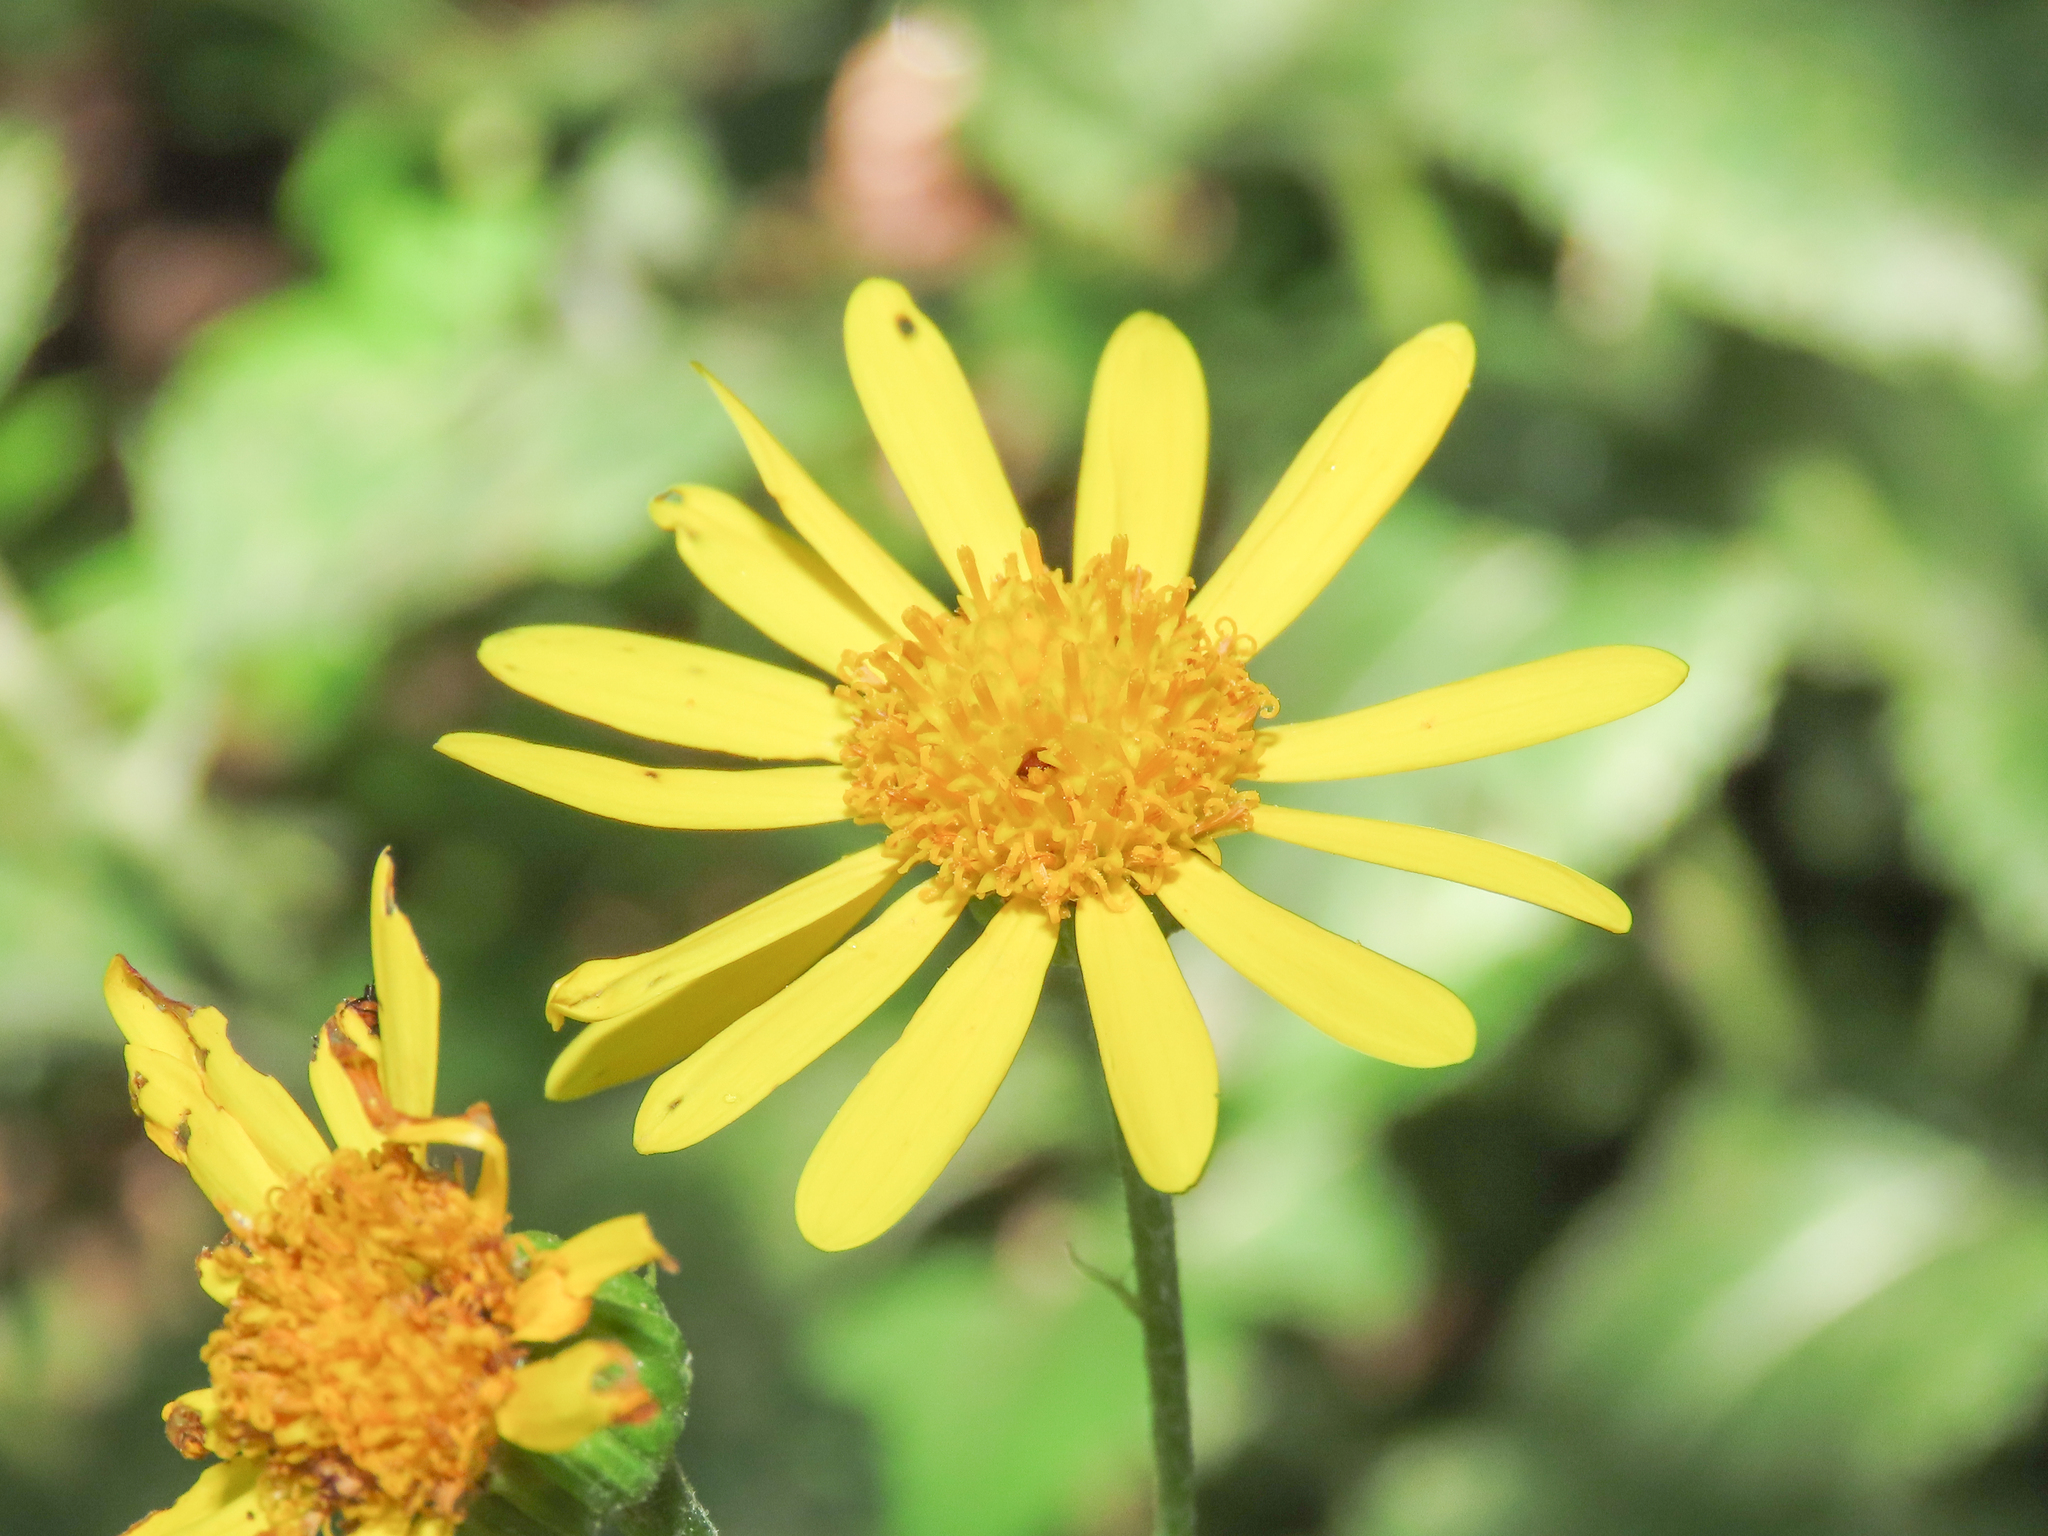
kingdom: Plantae
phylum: Tracheophyta
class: Magnoliopsida
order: Asterales
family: Asteraceae
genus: Jacobaea
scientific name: Jacobaea alpina
